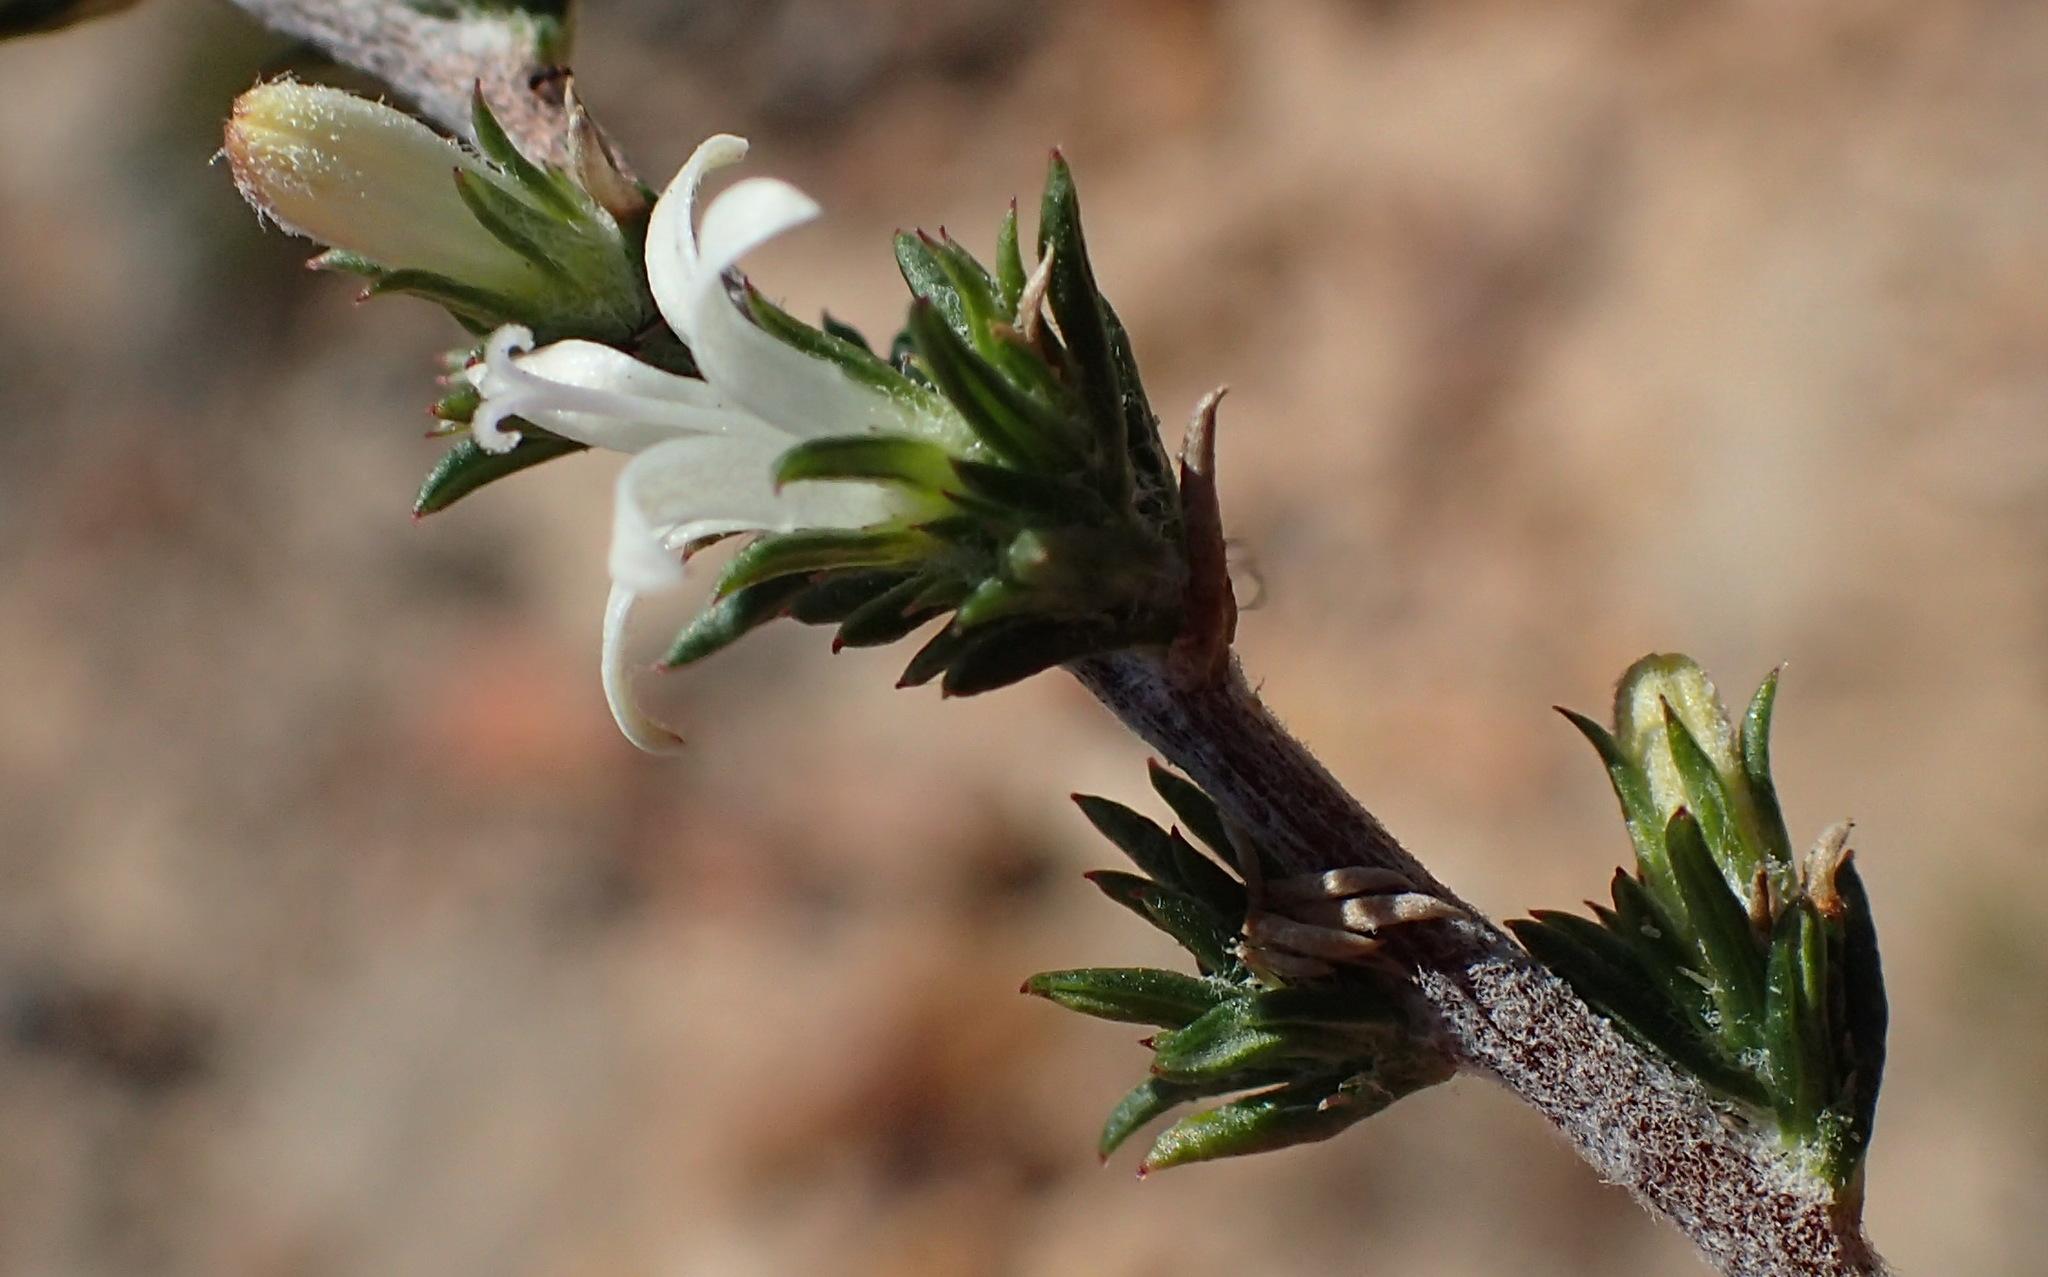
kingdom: Plantae
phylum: Tracheophyta
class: Magnoliopsida
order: Asterales
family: Campanulaceae
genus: Wahlenbergia
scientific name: Wahlenbergia cinerea
